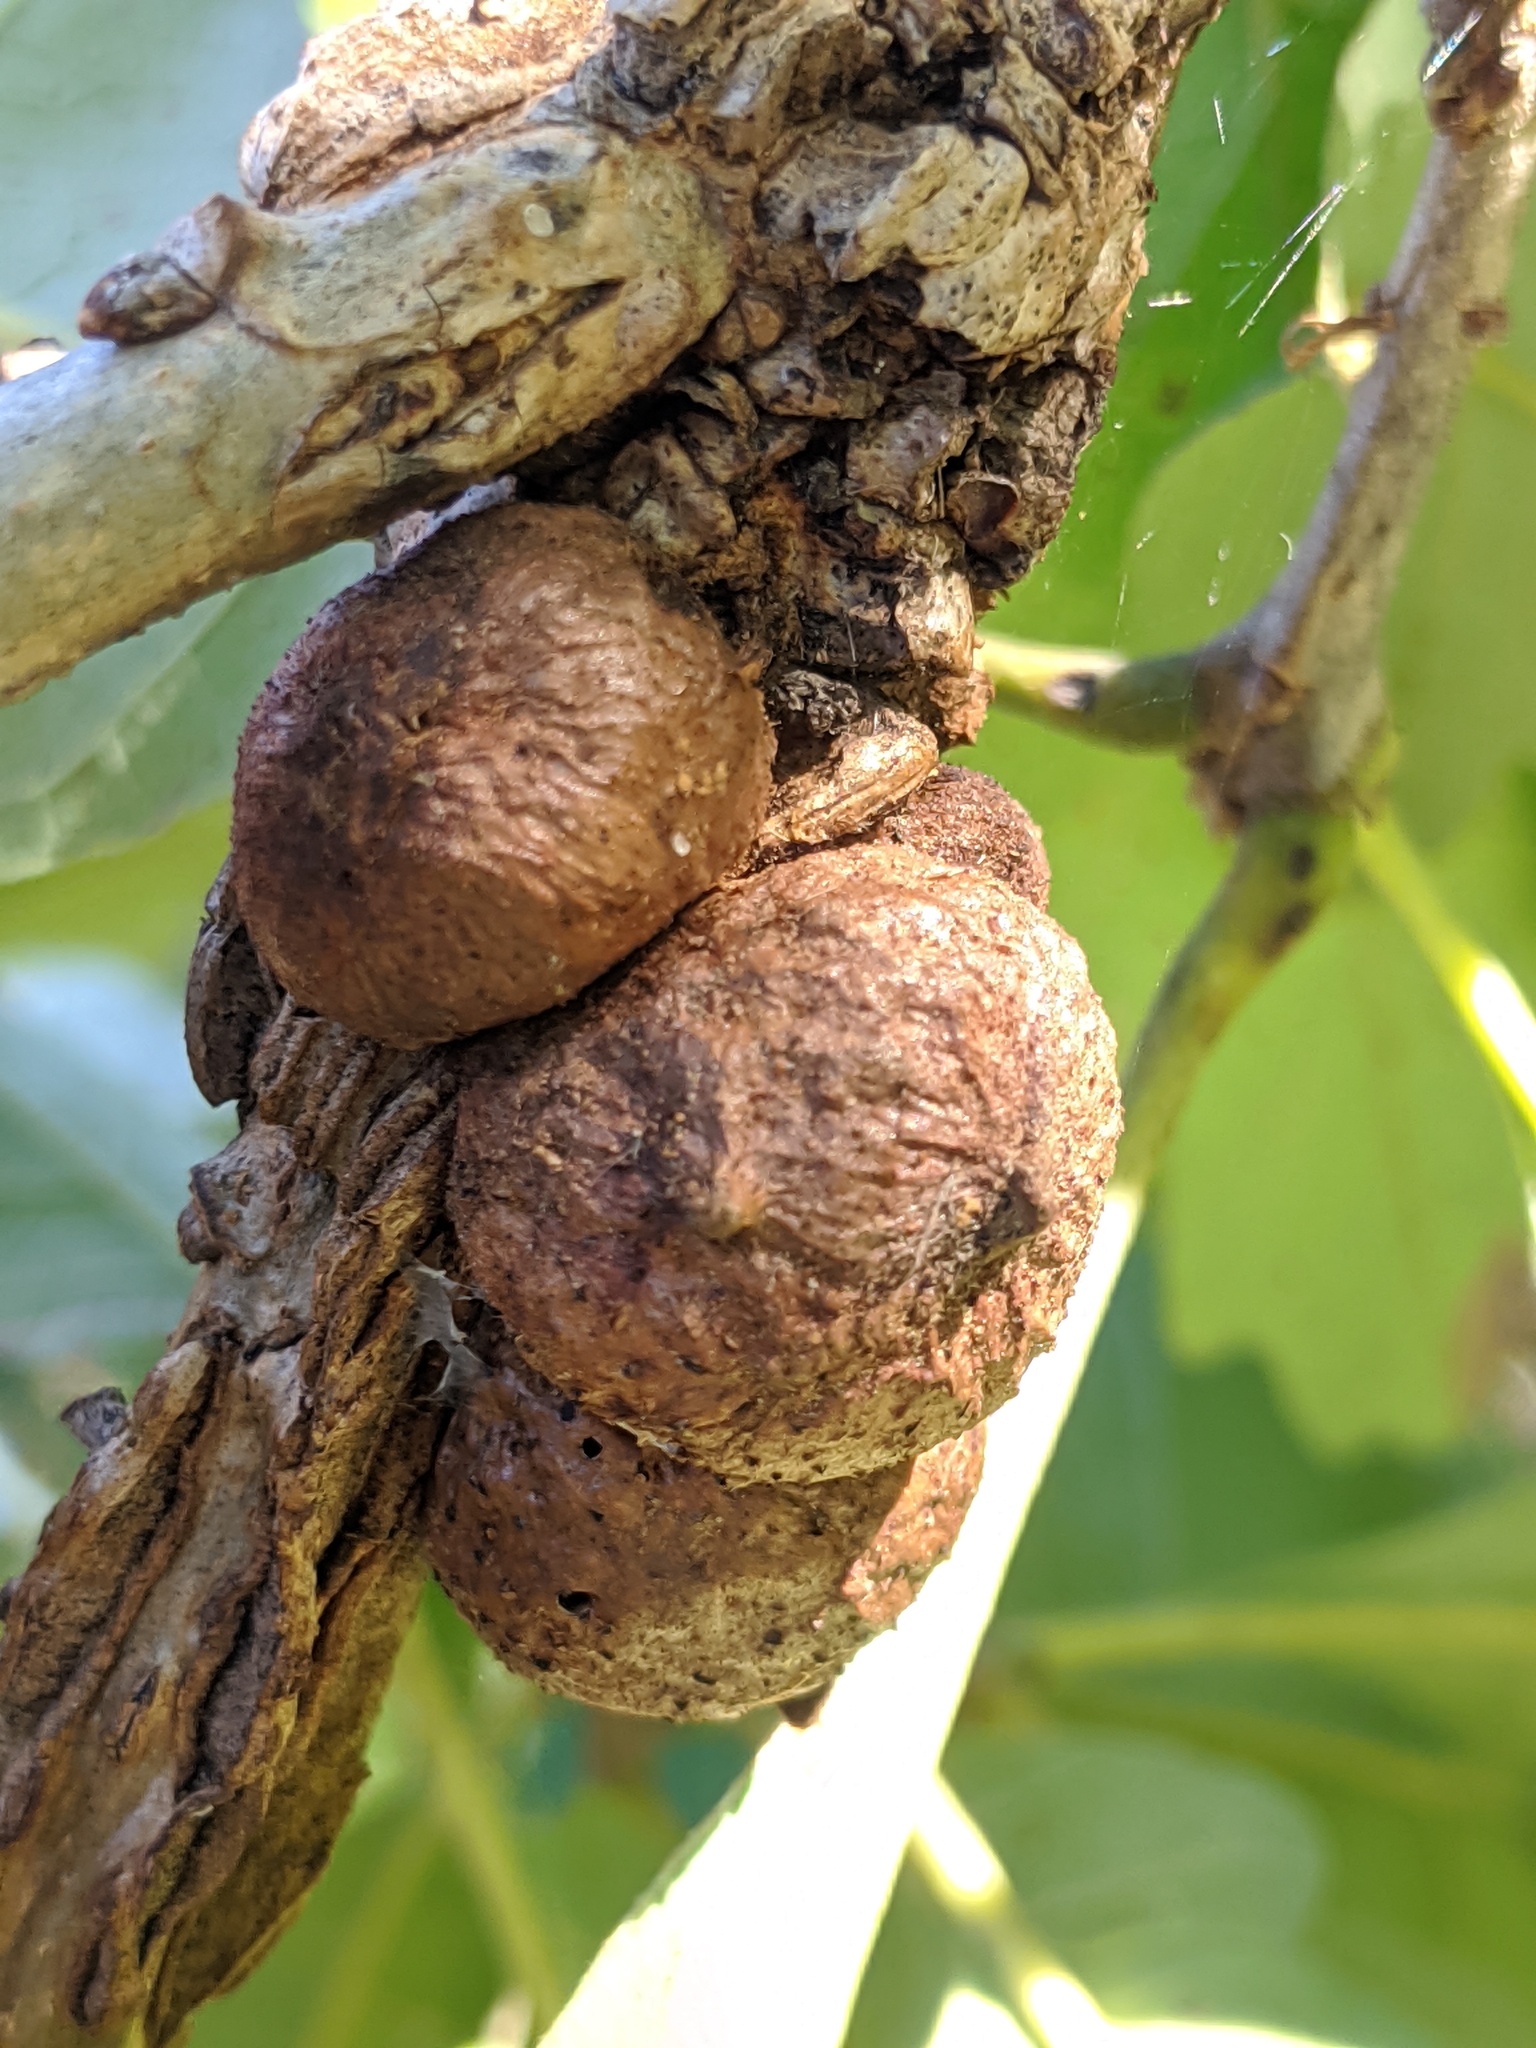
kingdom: Animalia
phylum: Arthropoda
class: Insecta
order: Hymenoptera
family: Cynipidae
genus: Disholcaspis
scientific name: Disholcaspis
